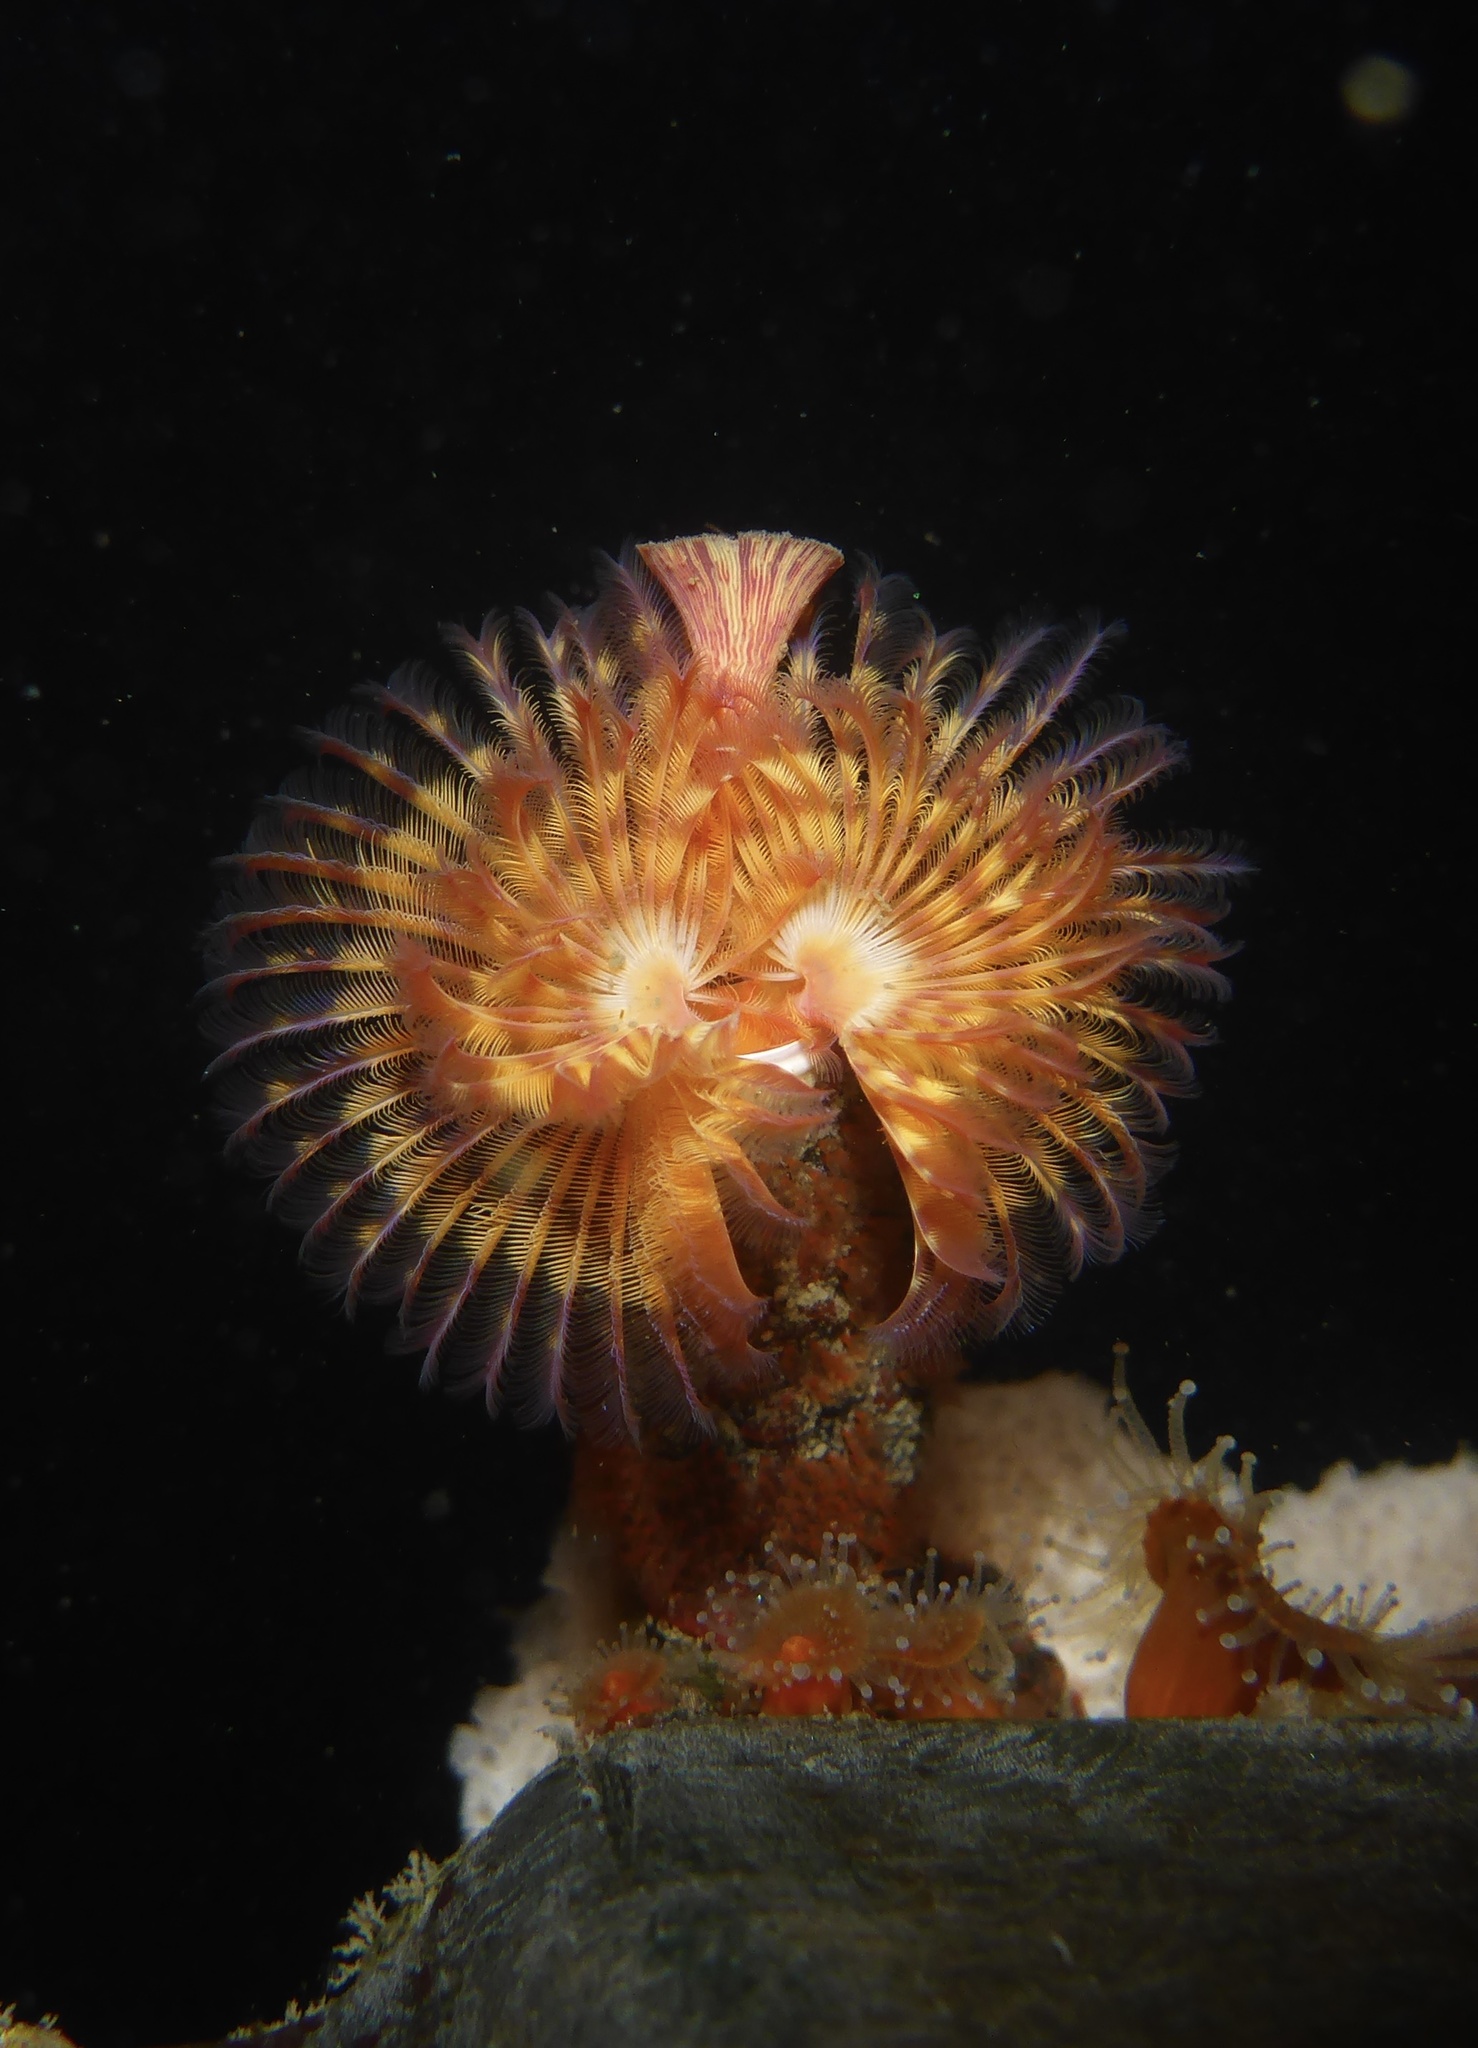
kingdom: Animalia
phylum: Annelida
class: Polychaeta
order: Sabellida
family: Serpulidae
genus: Serpula
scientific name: Serpula columbiana
